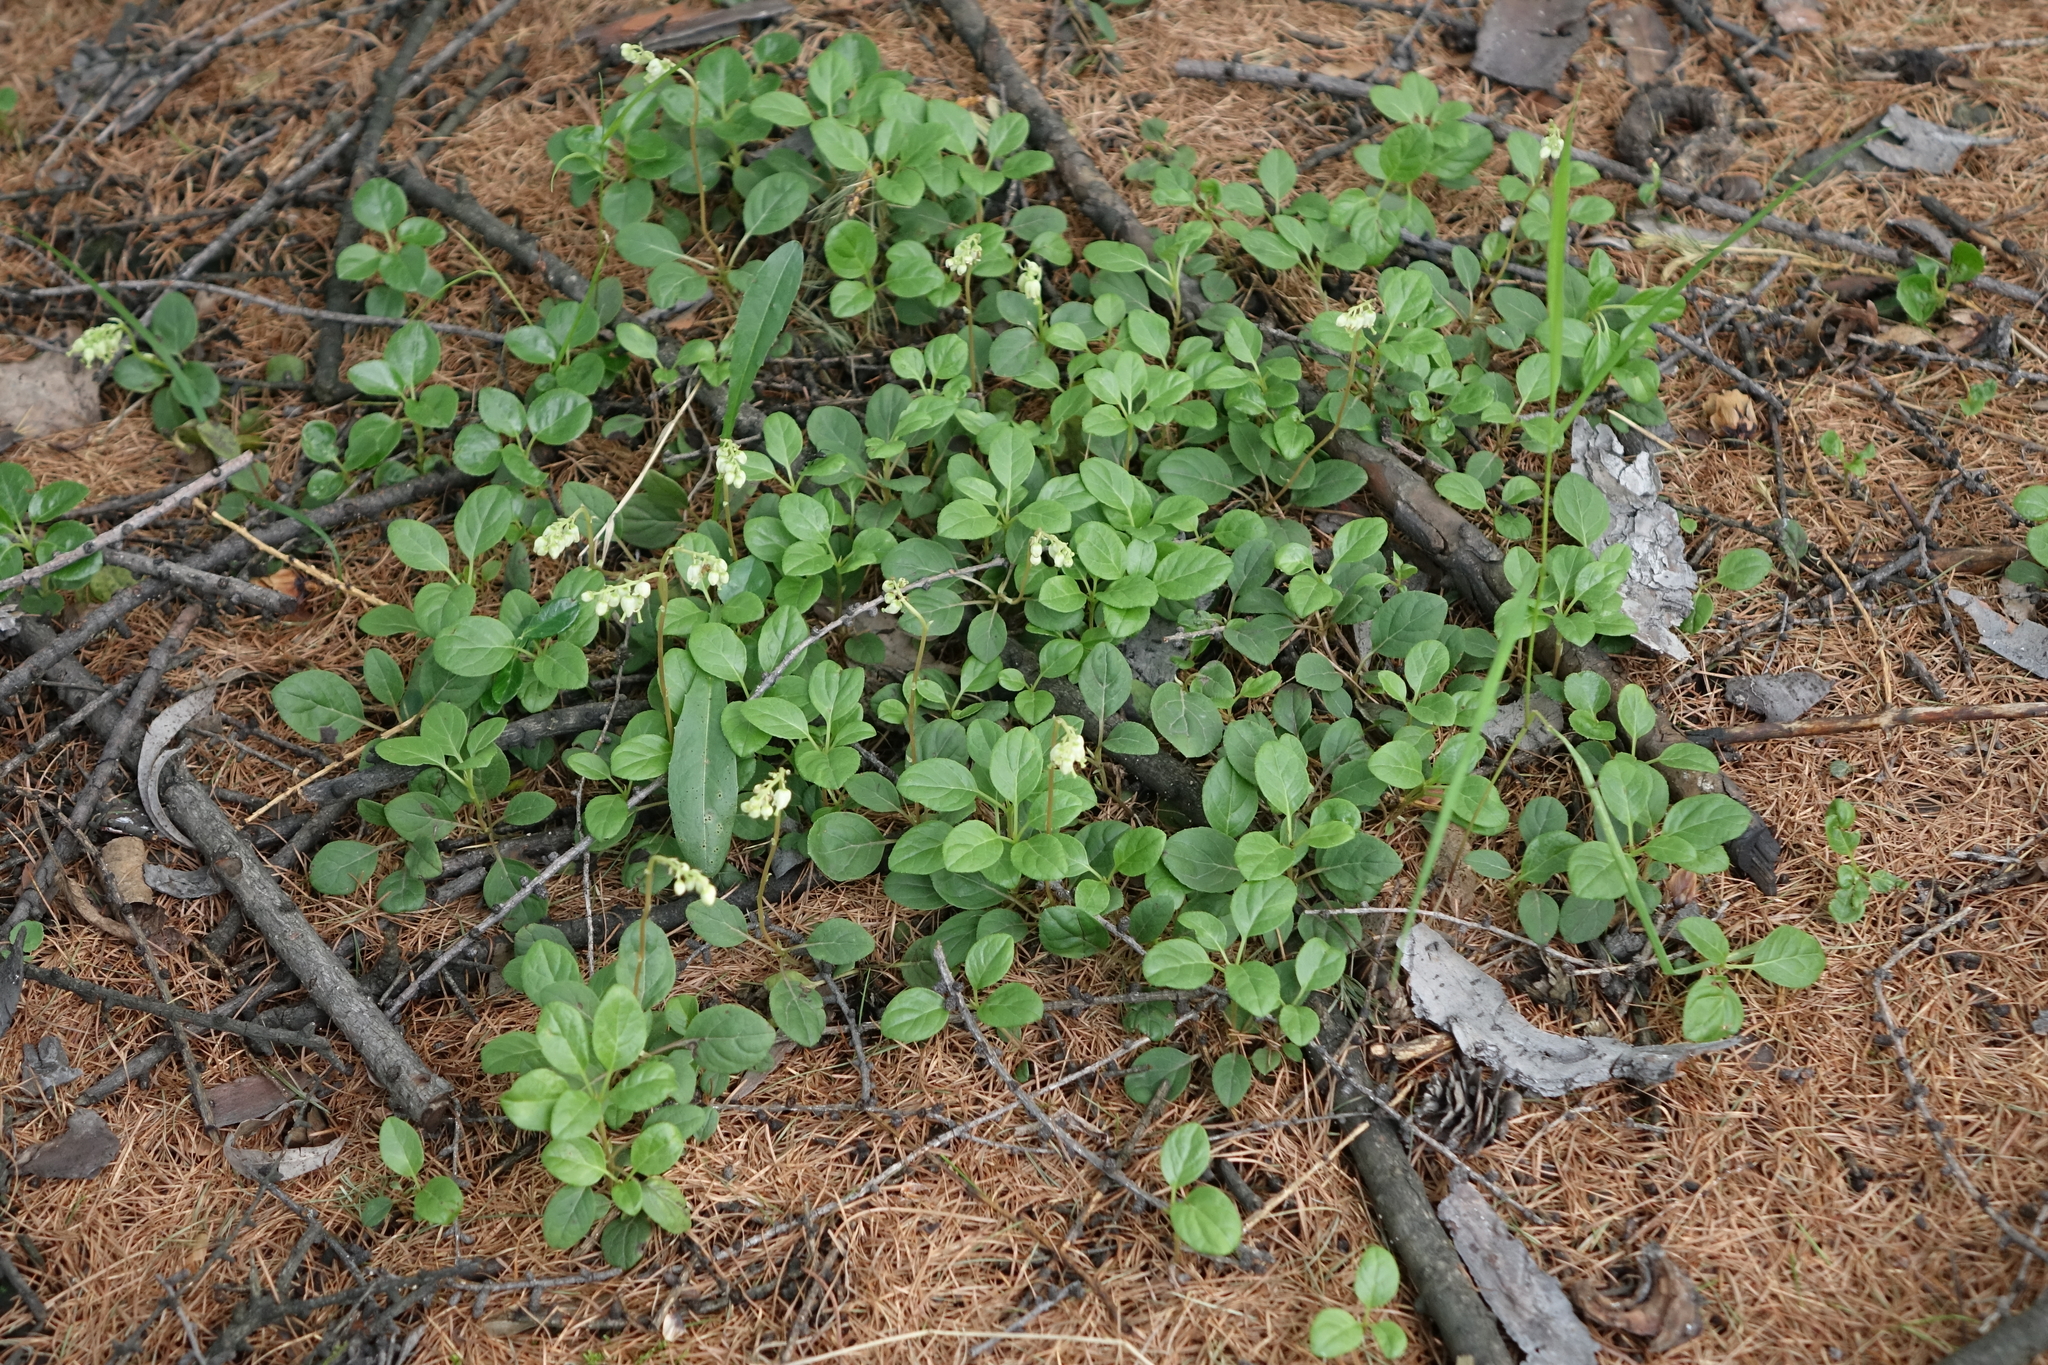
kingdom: Plantae
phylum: Tracheophyta
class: Magnoliopsida
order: Ericales
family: Ericaceae
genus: Orthilia
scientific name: Orthilia secunda
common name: One-sided orthilia
